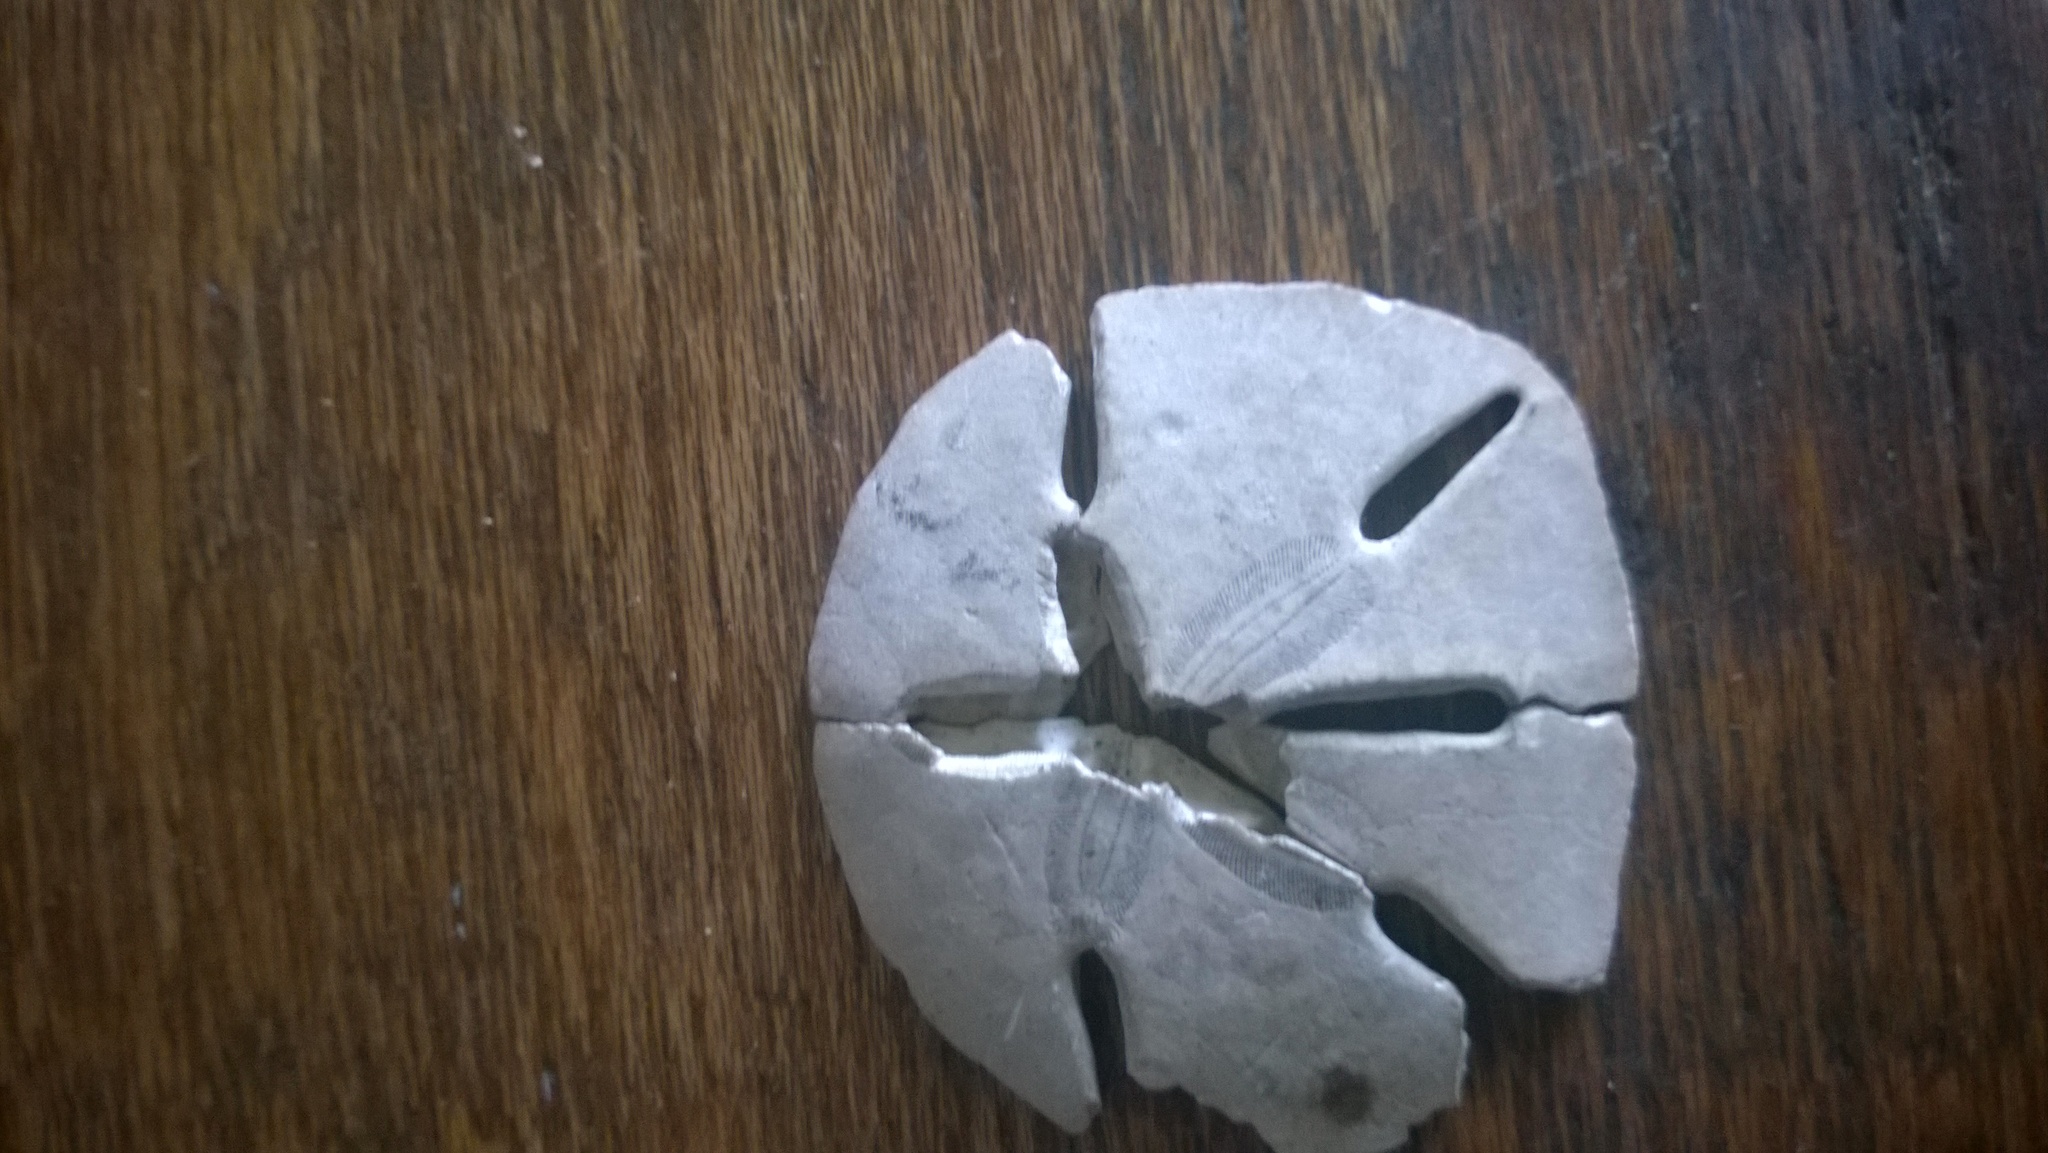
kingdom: Animalia
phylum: Echinodermata
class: Echinoidea
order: Echinolampadacea
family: Mellitidae
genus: Mellita
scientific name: Mellita quinquiesperforata
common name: Sand dollar
